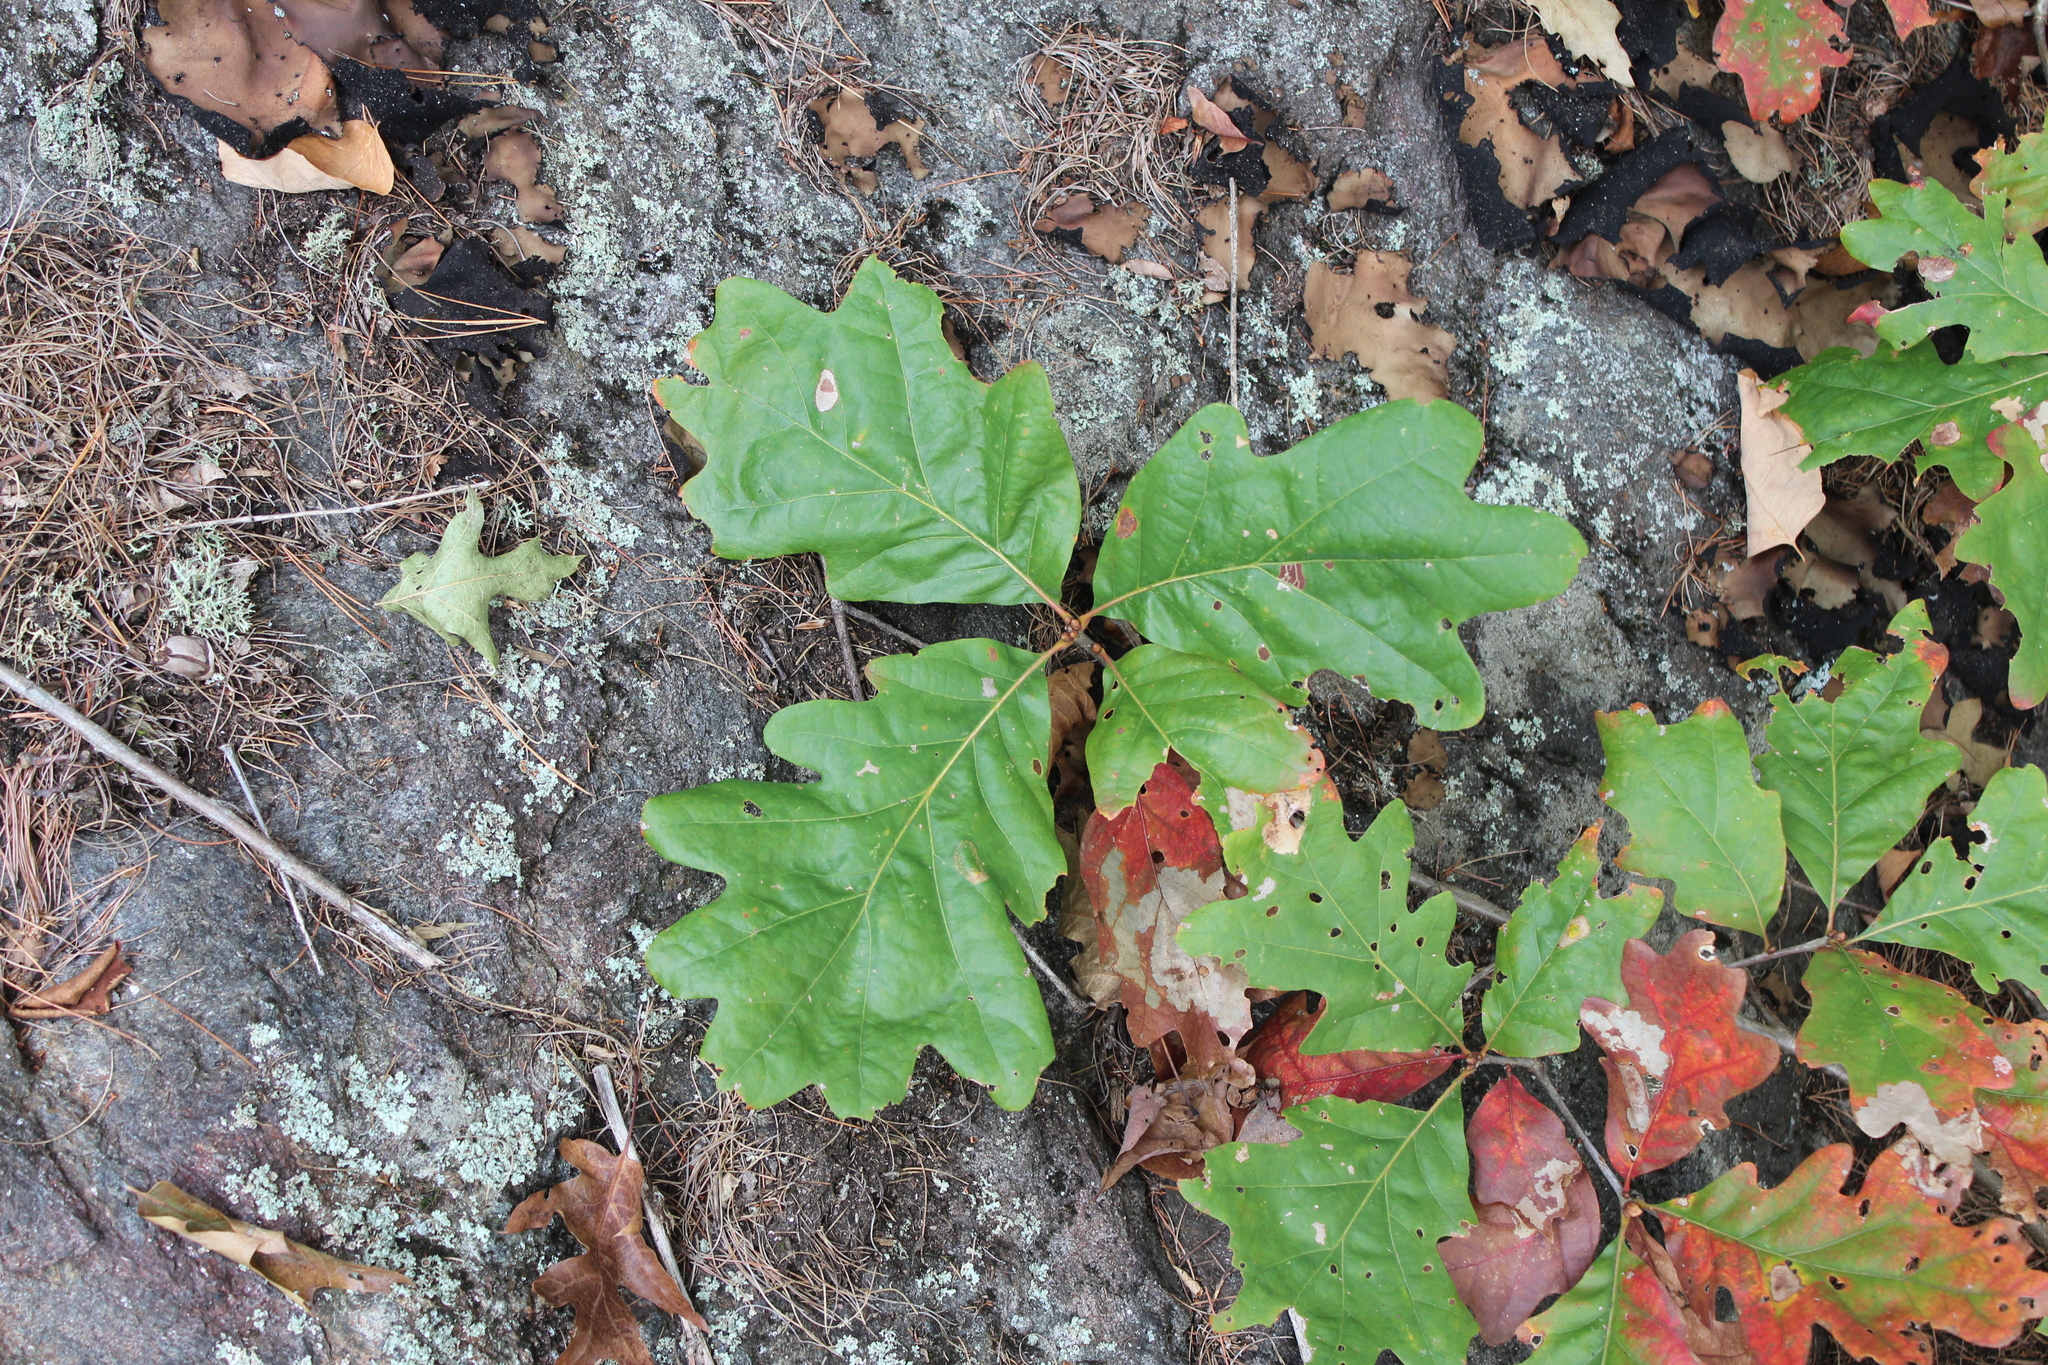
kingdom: Plantae
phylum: Tracheophyta
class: Magnoliopsida
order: Fagales
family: Fagaceae
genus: Quercus
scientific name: Quercus alba
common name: White oak
